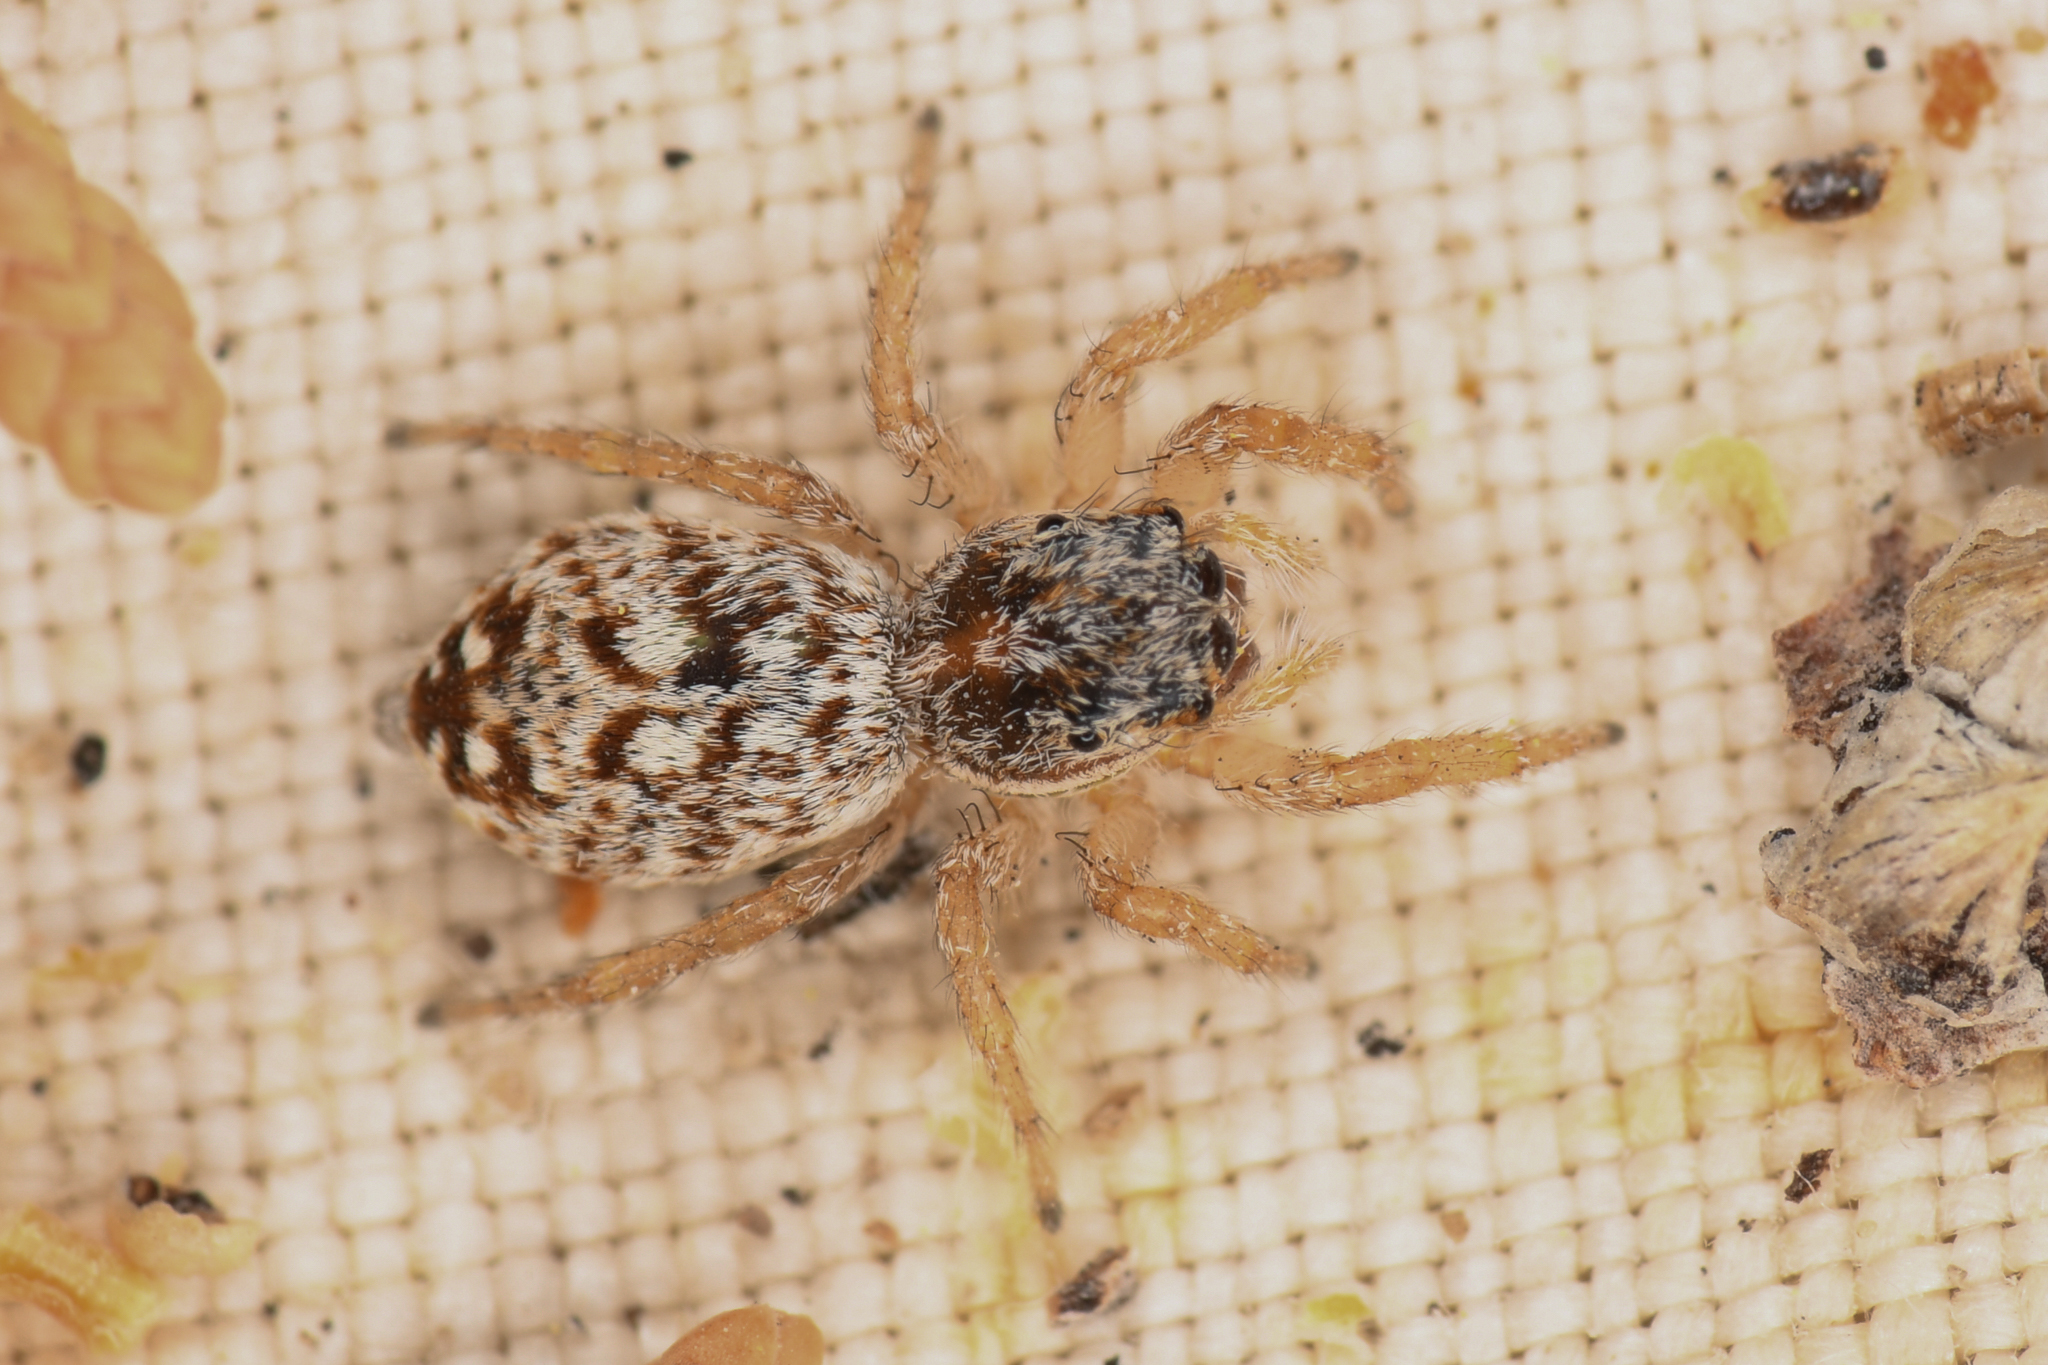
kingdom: Animalia
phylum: Arthropoda
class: Arachnida
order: Araneae
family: Salticidae
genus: Marchena
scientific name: Marchena minuta
